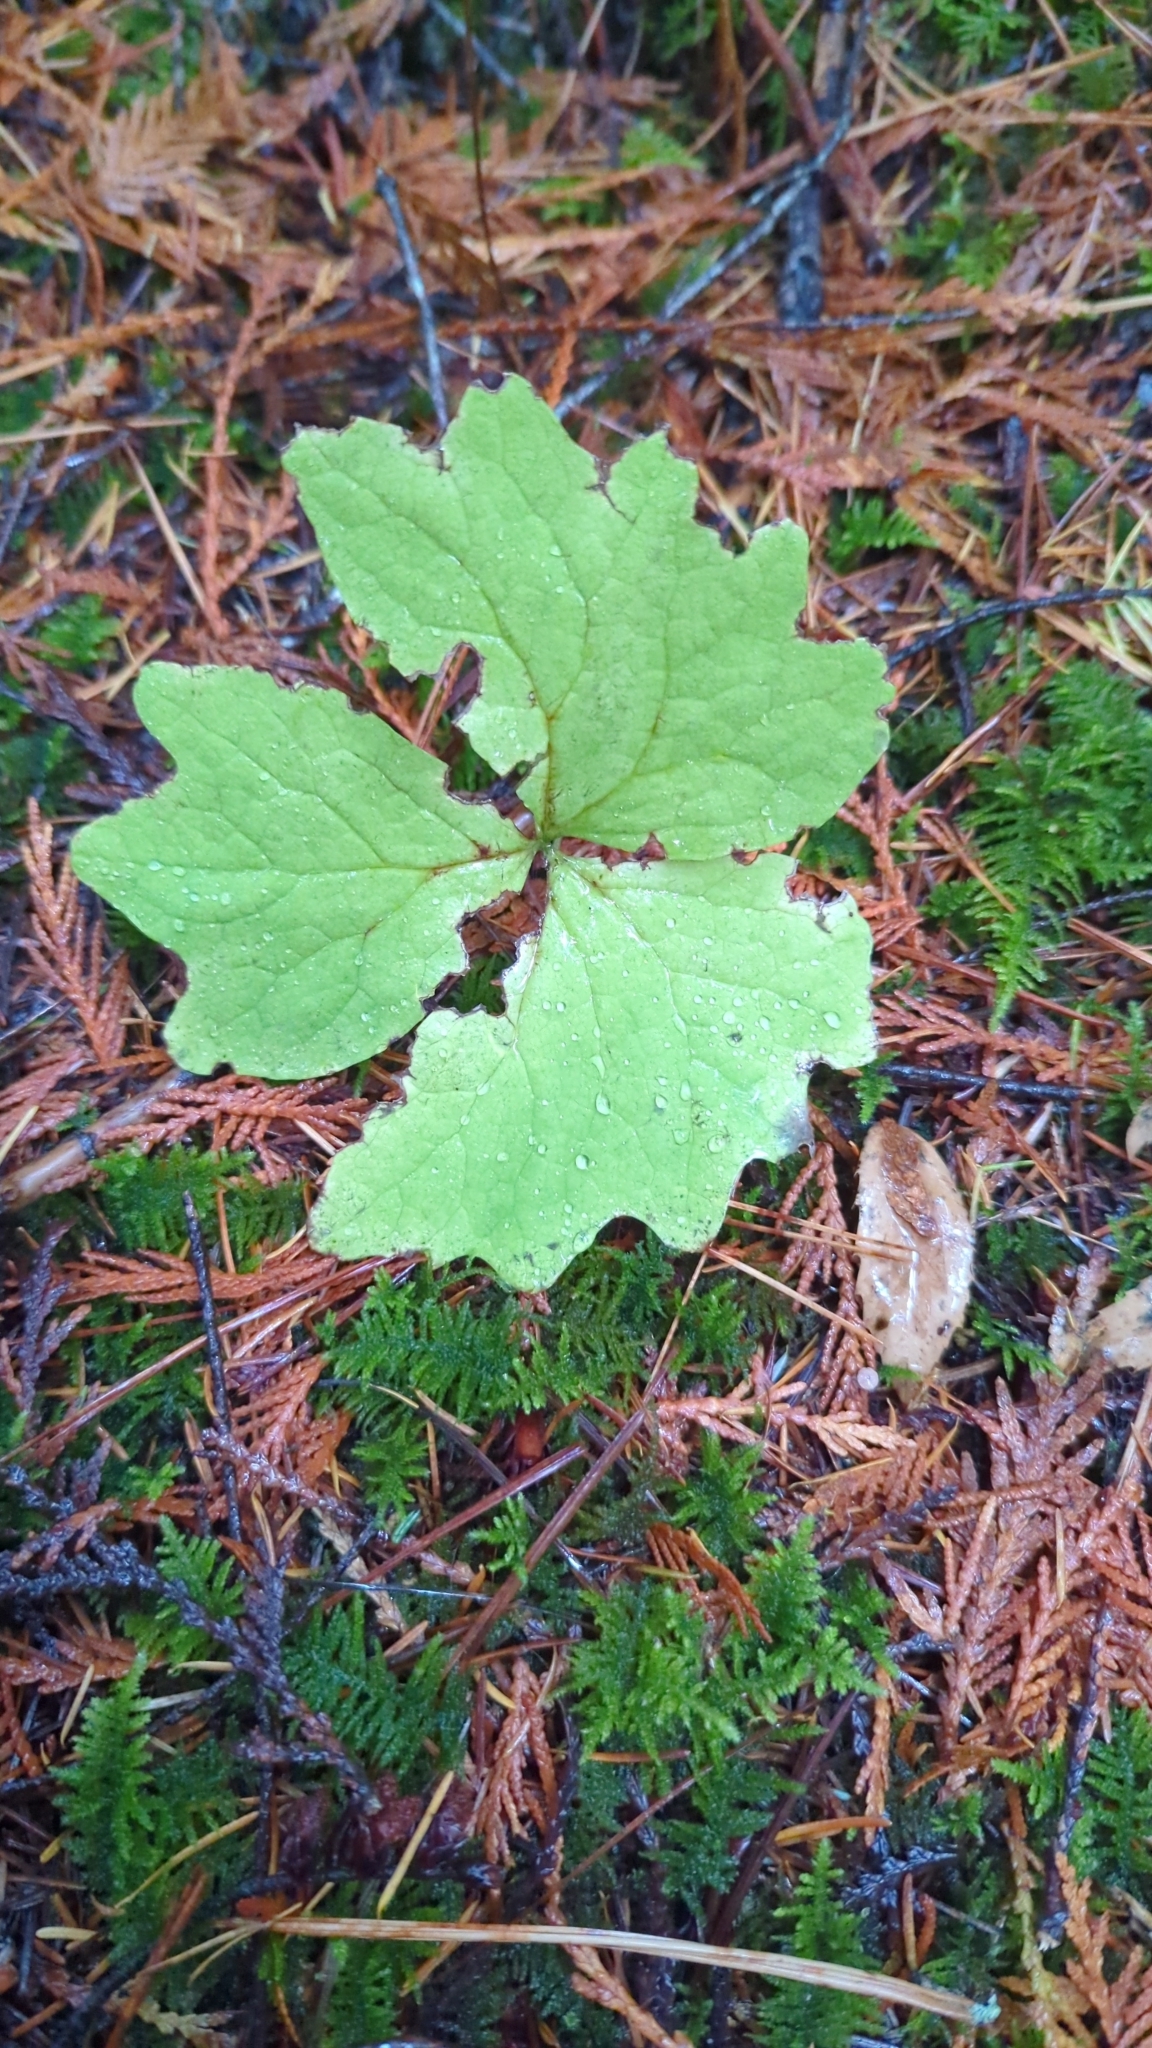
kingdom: Plantae
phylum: Tracheophyta
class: Magnoliopsida
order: Ranunculales
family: Berberidaceae
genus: Achlys
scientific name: Achlys triphylla
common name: Vanilla-leaf
